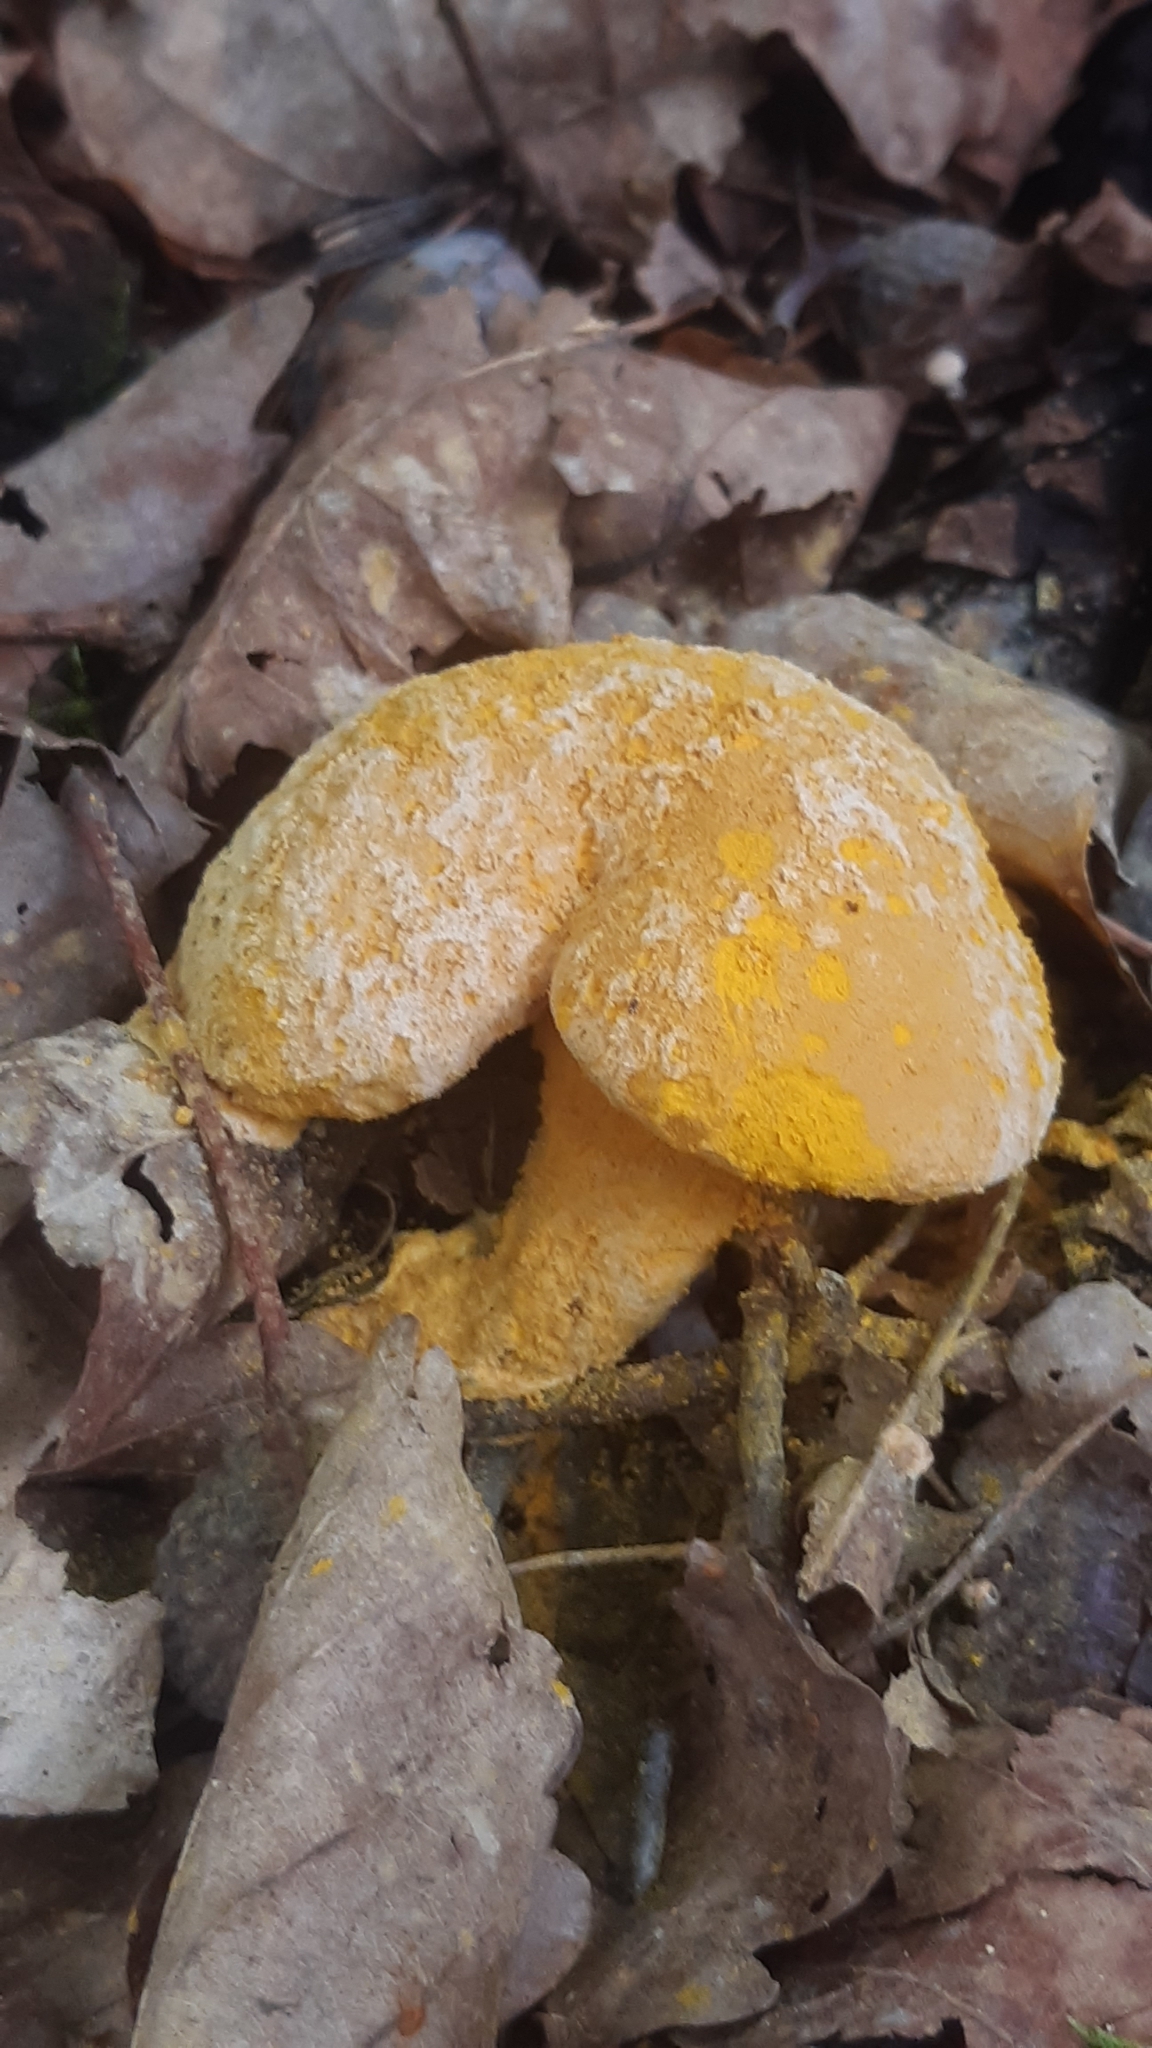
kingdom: Fungi
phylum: Ascomycota
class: Sordariomycetes
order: Hypocreales
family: Hypocreaceae
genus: Hypomyces
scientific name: Hypomyces chrysospermus
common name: Bolete mould
